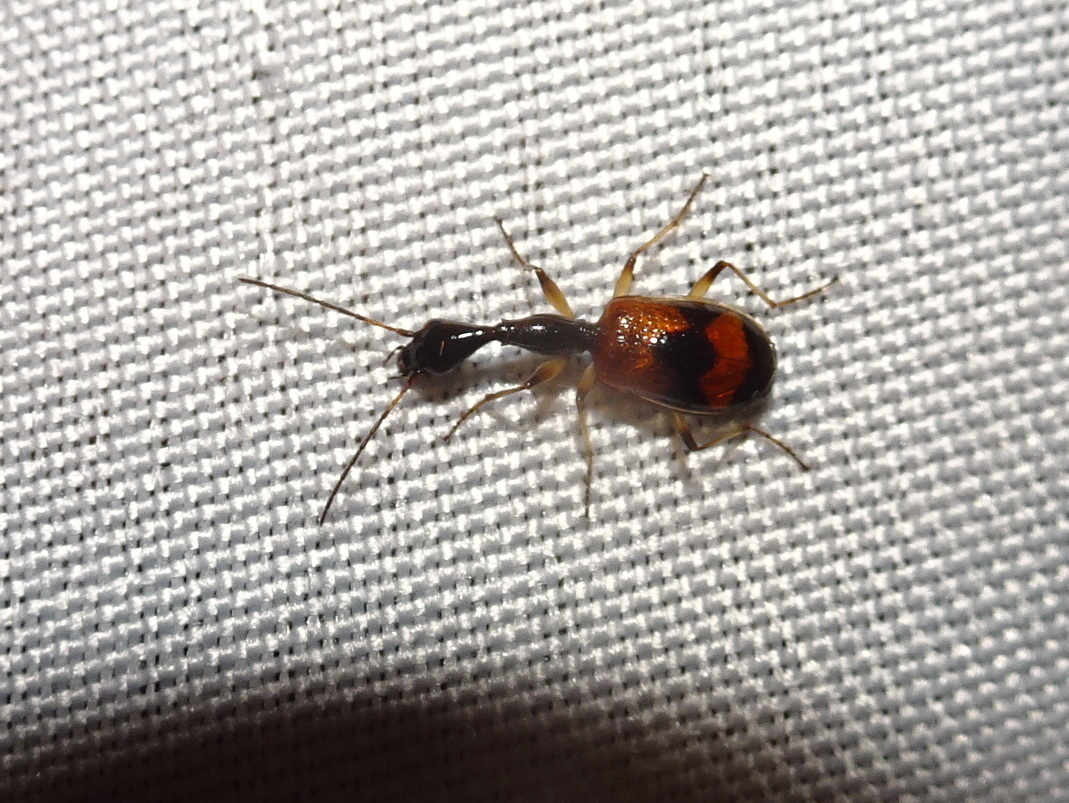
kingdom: Animalia
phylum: Arthropoda
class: Insecta
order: Coleoptera
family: Carabidae
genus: Colliuris
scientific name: Colliuris pensylvanica
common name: Long-necked ground beetle
